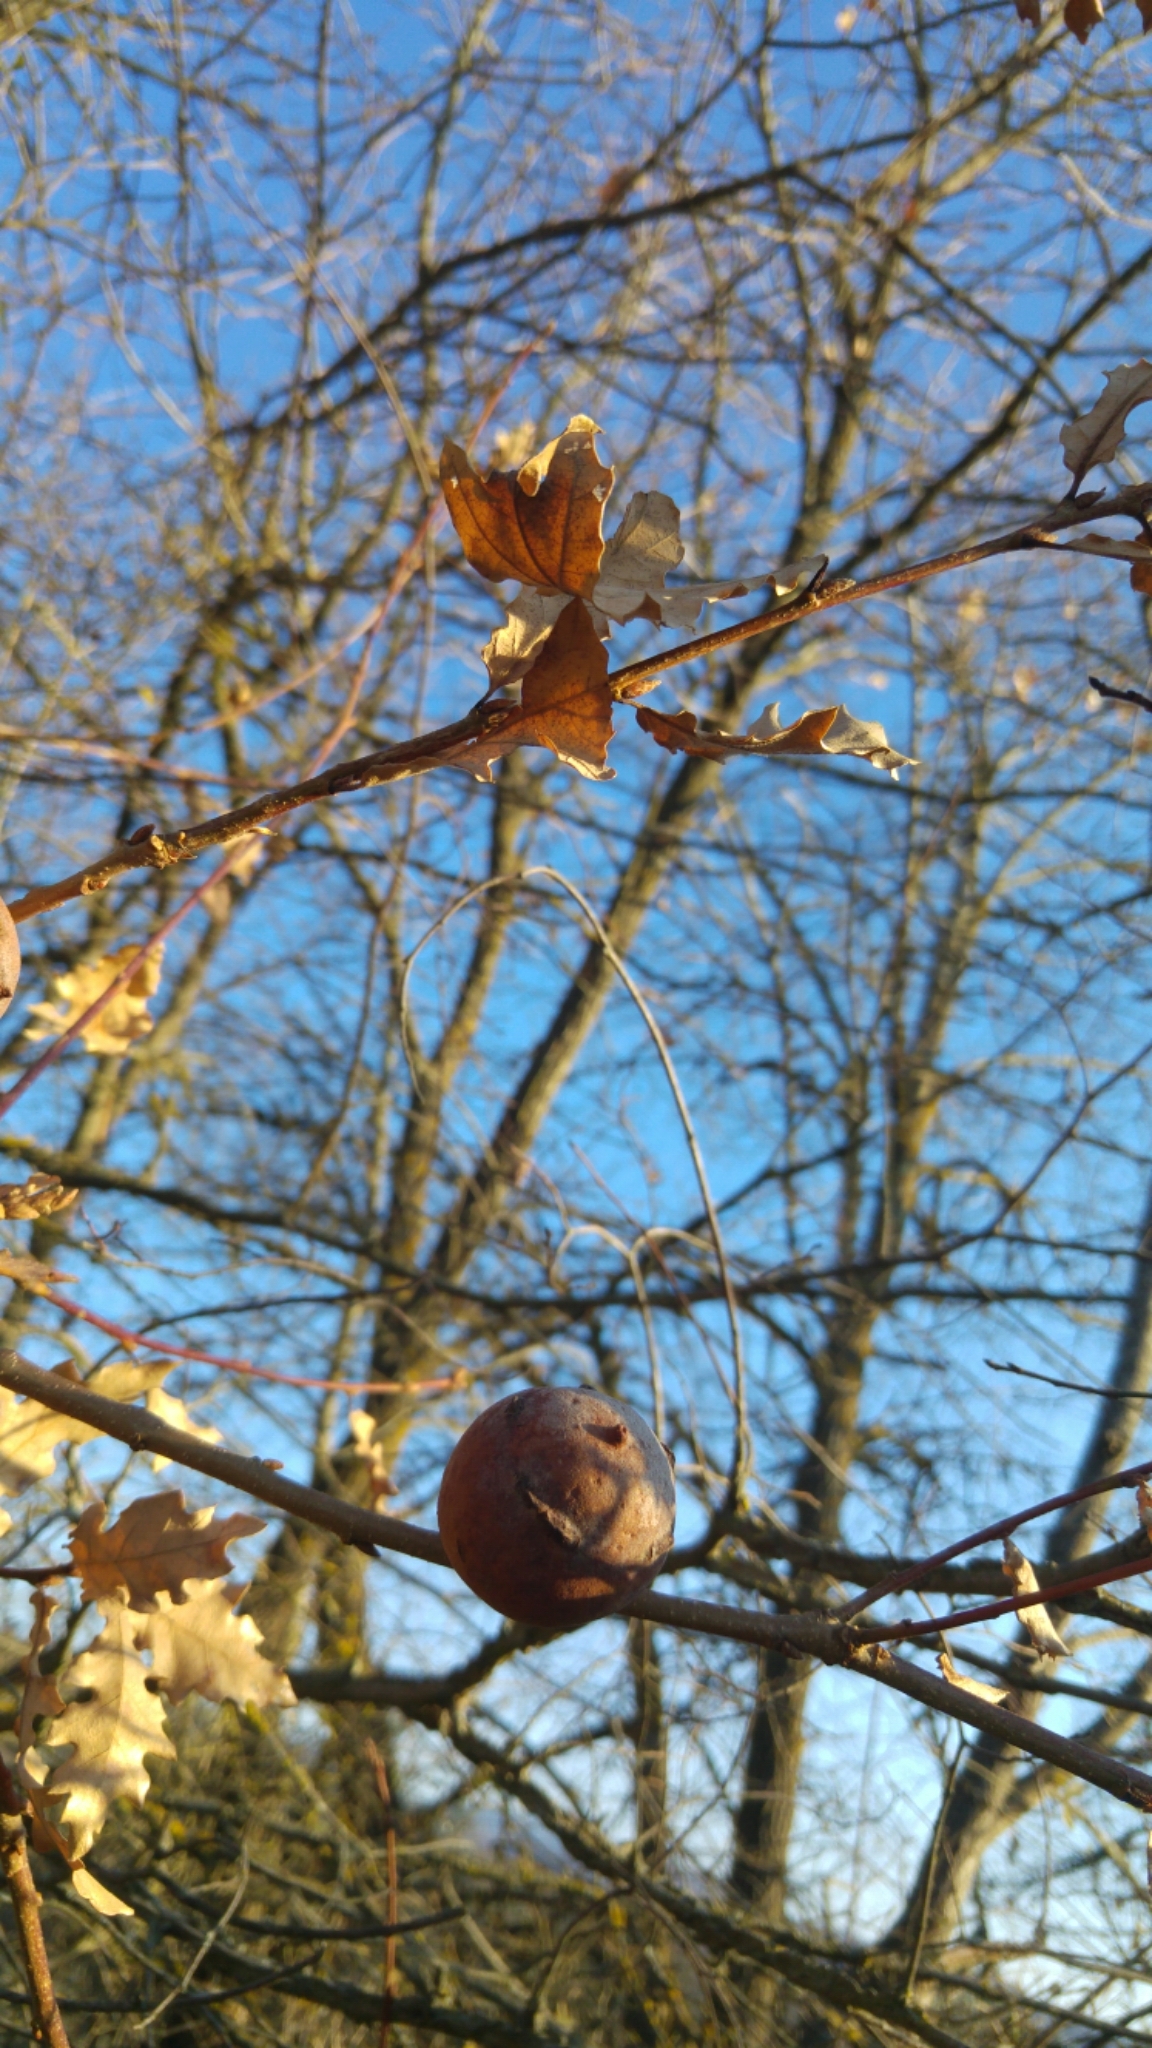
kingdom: Animalia
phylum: Arthropoda
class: Insecta
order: Hymenoptera
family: Cynipidae
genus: Andricus
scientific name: Andricus quercustozae
